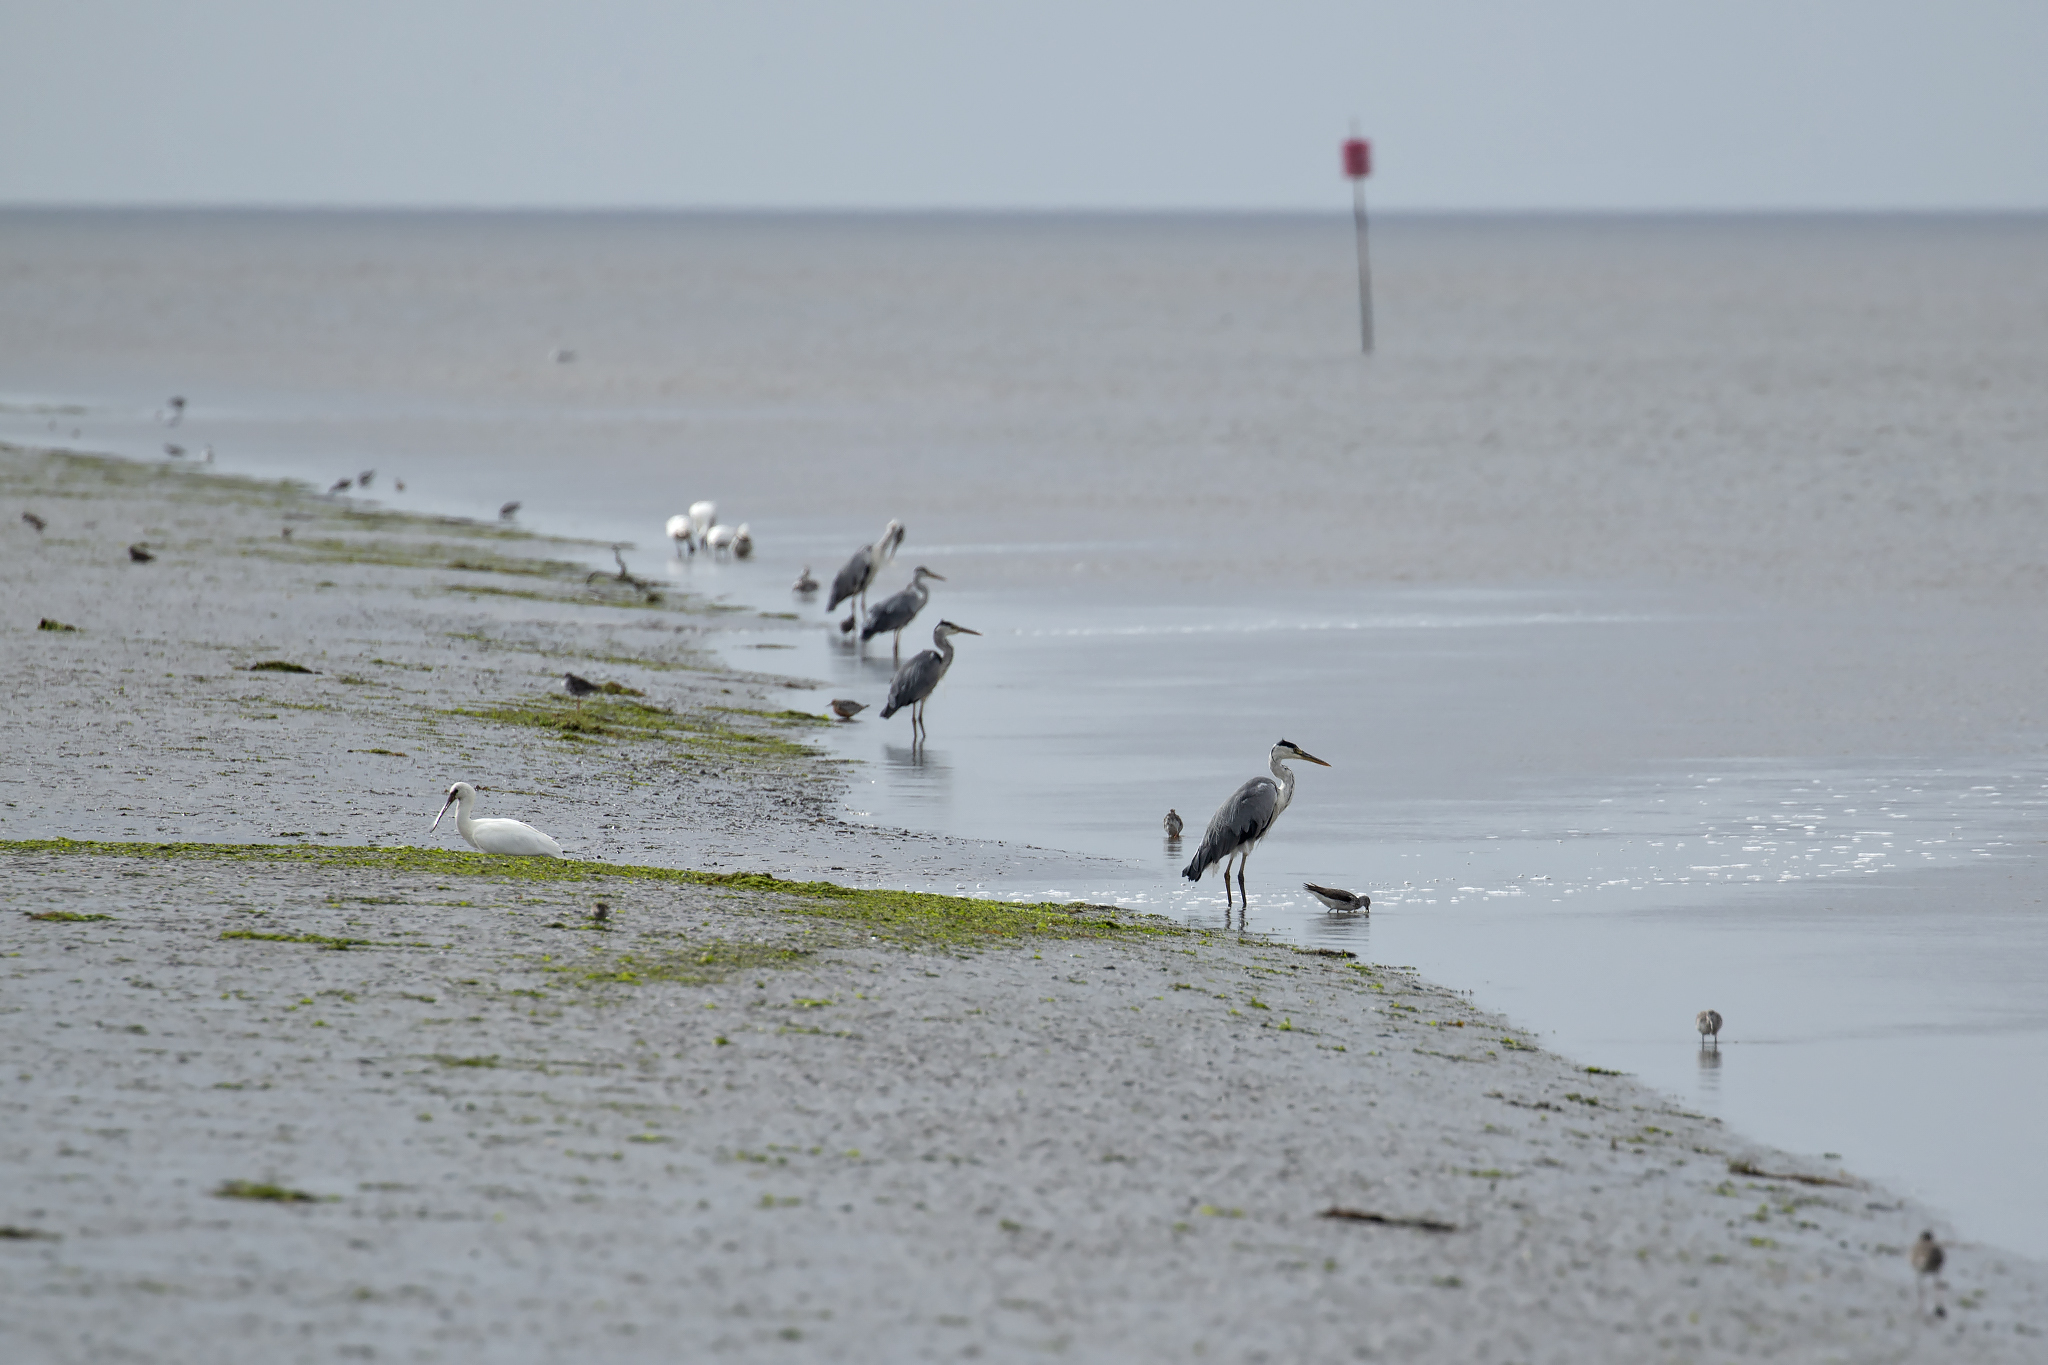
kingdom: Animalia
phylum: Chordata
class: Aves
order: Pelecaniformes
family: Ardeidae
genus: Ardea
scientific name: Ardea cinerea
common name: Grey heron
